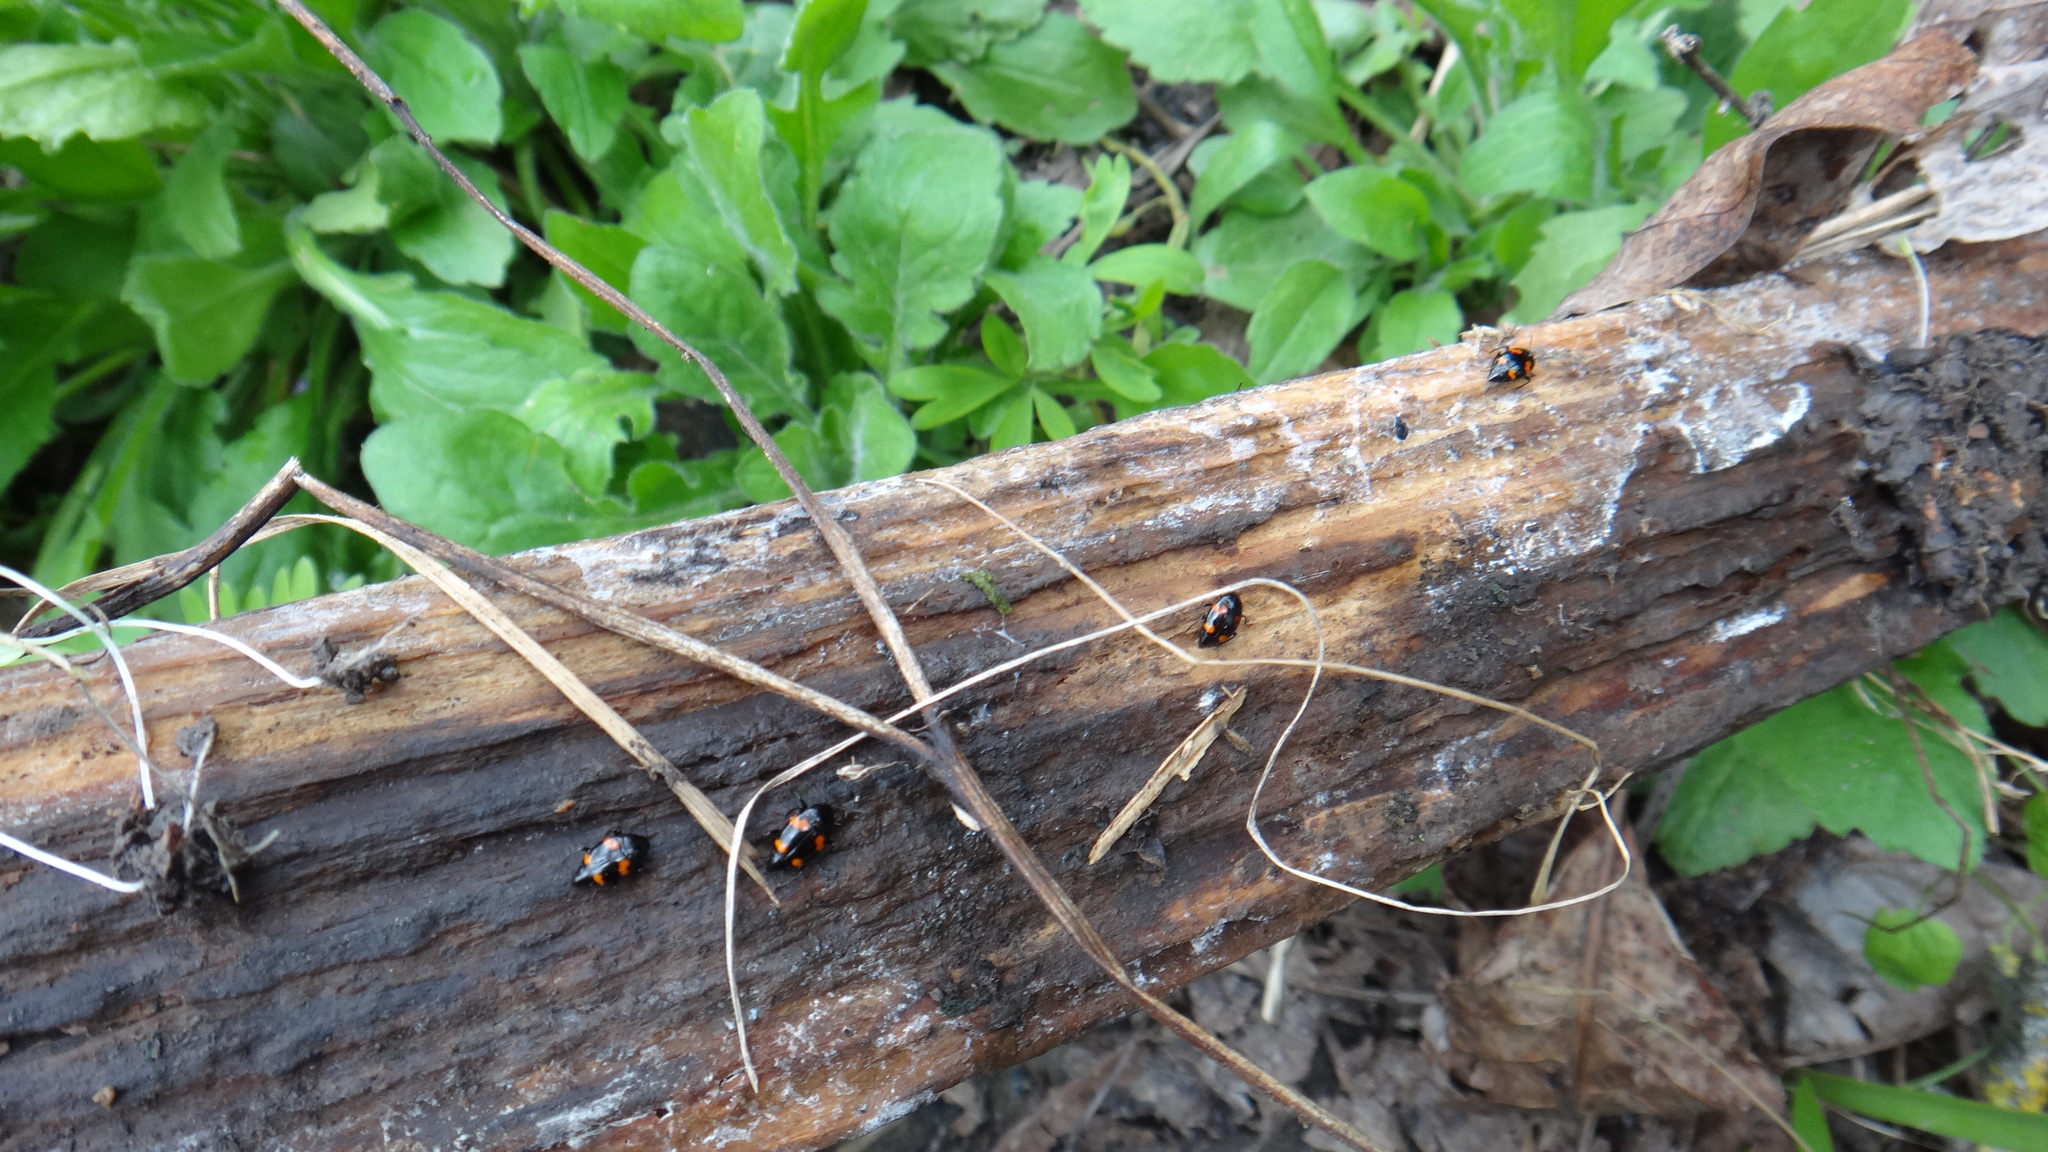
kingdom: Animalia
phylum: Arthropoda
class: Insecta
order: Coleoptera
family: Staphylinidae
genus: Scaphidium
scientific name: Scaphidium quadrimaculatum
